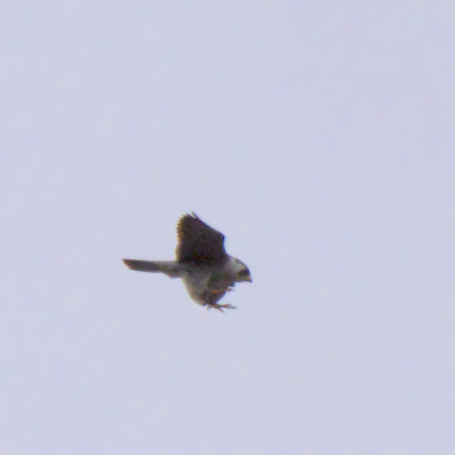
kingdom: Animalia
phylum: Chordata
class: Aves
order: Falconiformes
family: Falconidae
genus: Falco
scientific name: Falco peregrinus
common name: Peregrine falcon
